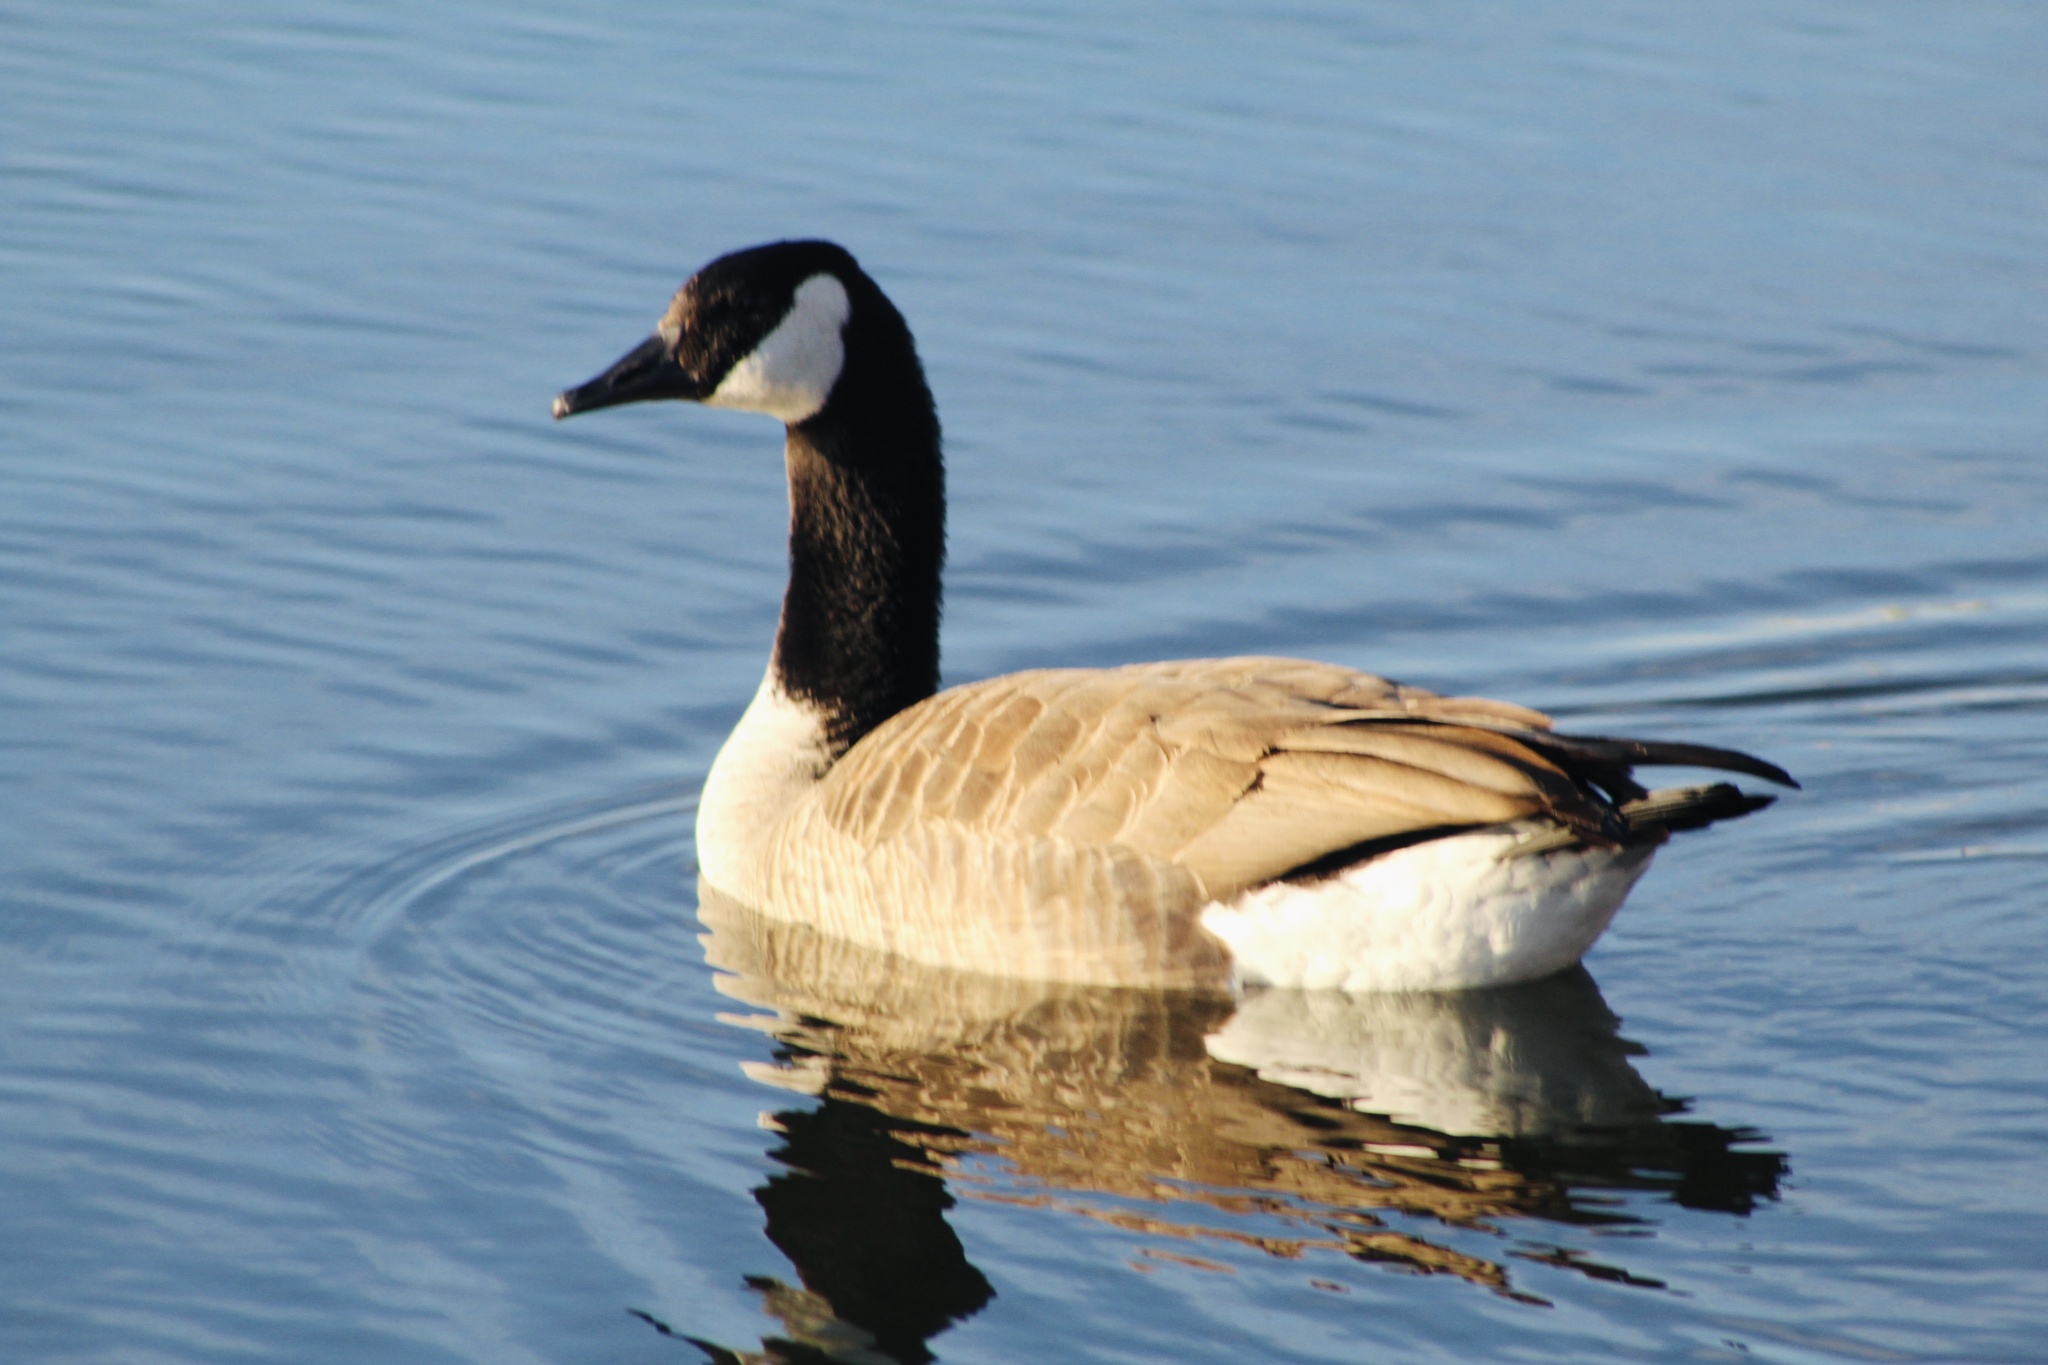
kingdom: Animalia
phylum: Chordata
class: Aves
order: Anseriformes
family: Anatidae
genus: Branta
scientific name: Branta canadensis
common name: Canada goose
